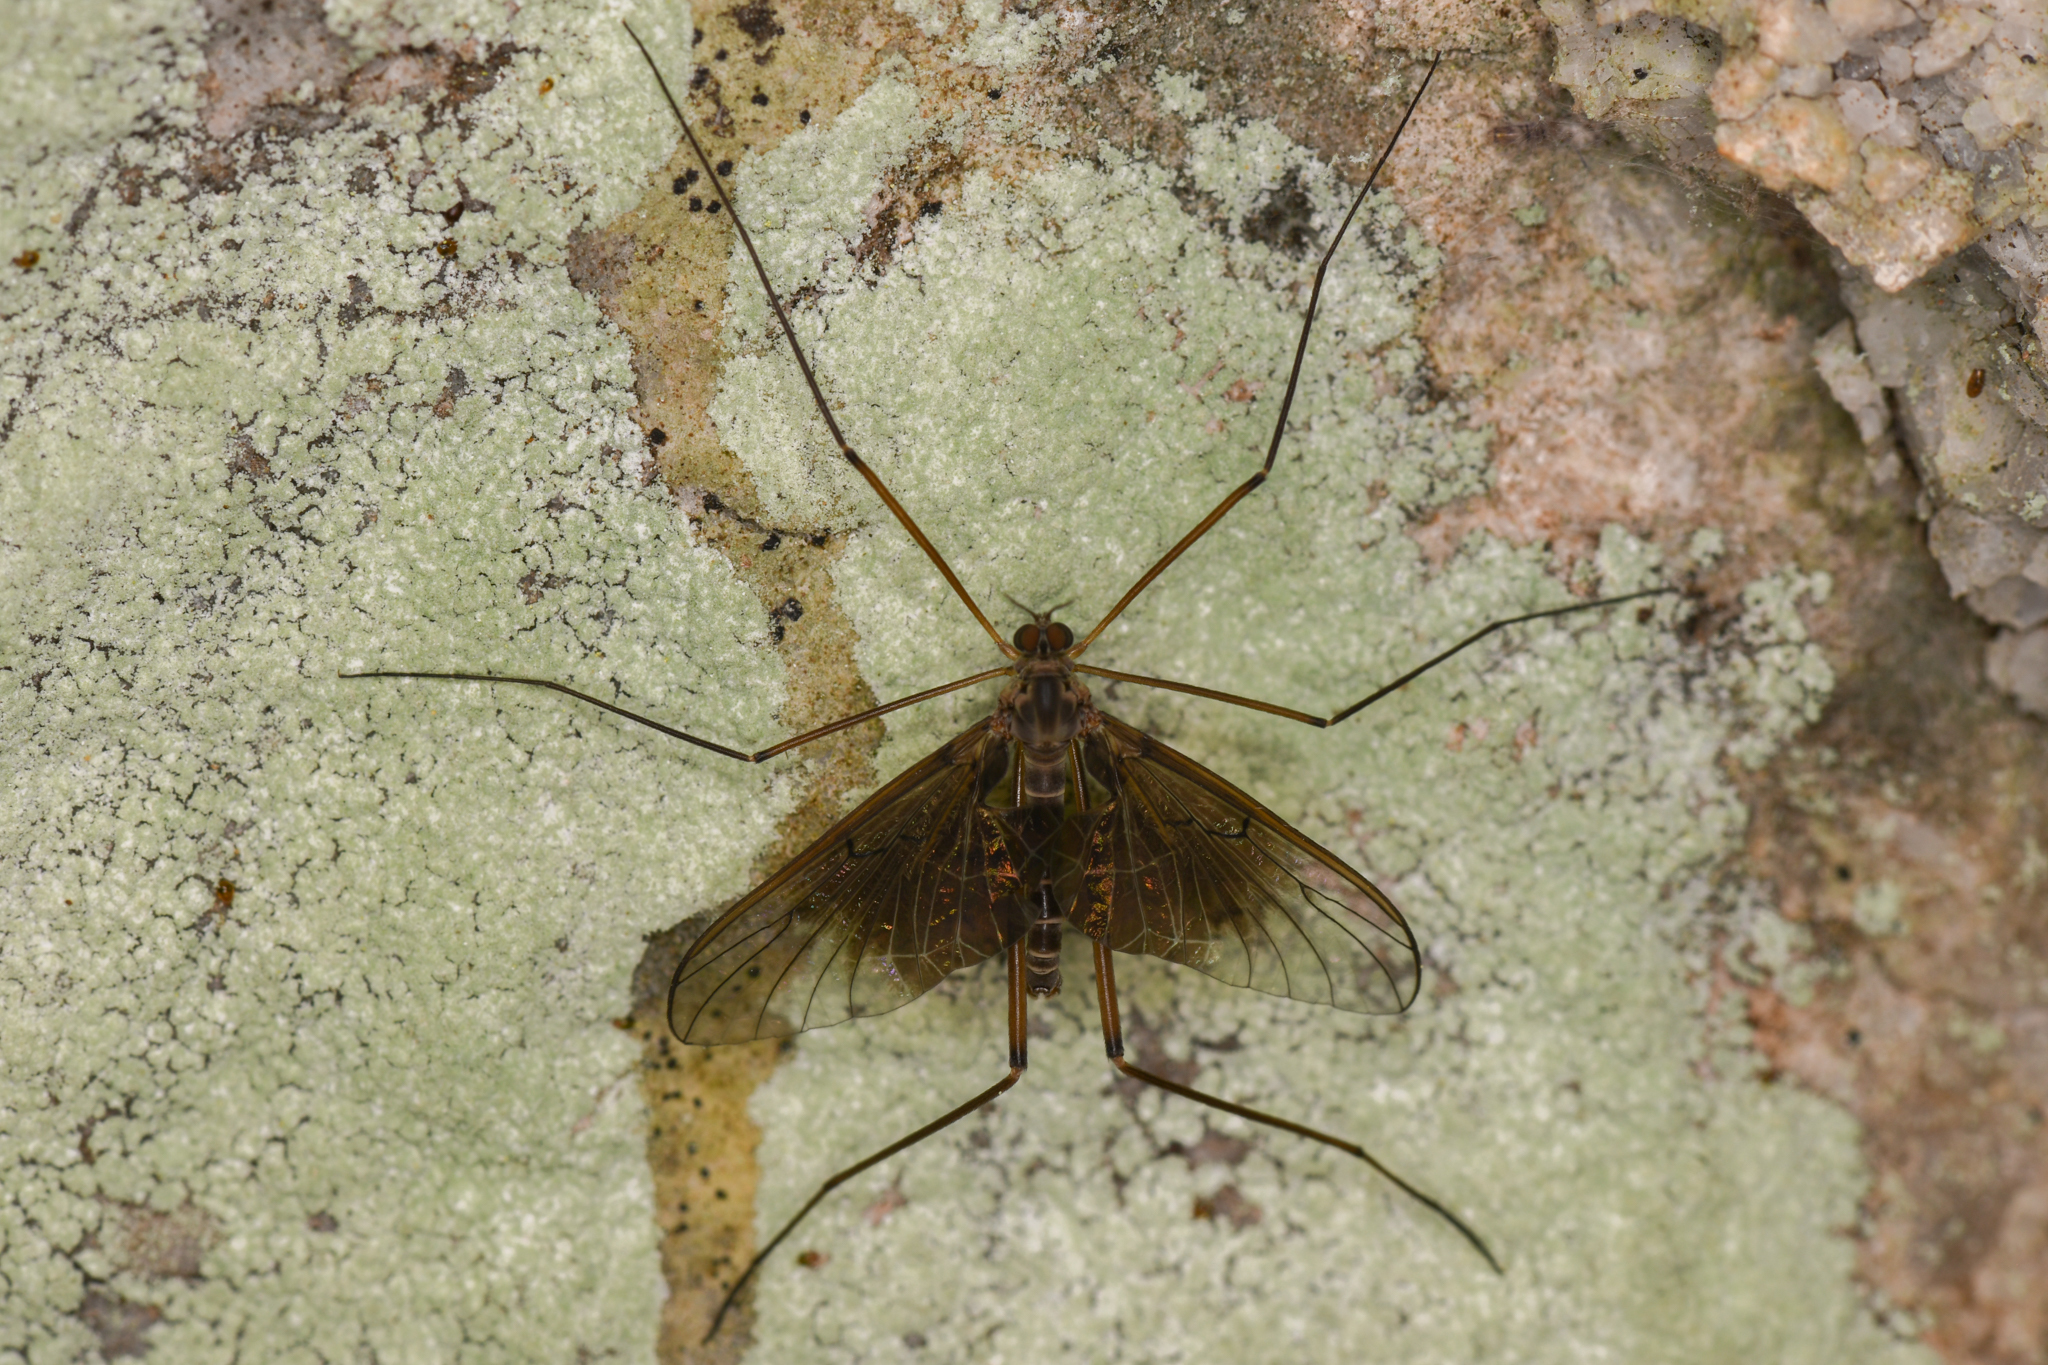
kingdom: Animalia
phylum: Arthropoda
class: Insecta
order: Diptera
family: Blephariceridae
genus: Philorus
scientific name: Philorus yosemite
